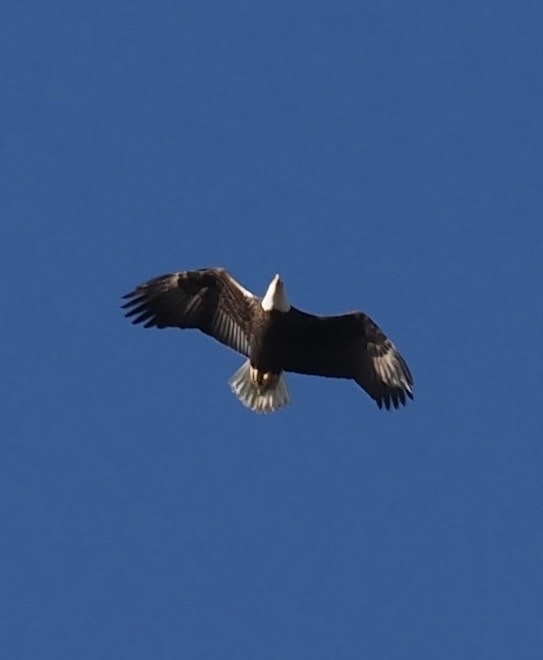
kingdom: Animalia
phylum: Chordata
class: Aves
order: Accipitriformes
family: Accipitridae
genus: Haliaeetus
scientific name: Haliaeetus leucocephalus
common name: Bald eagle
